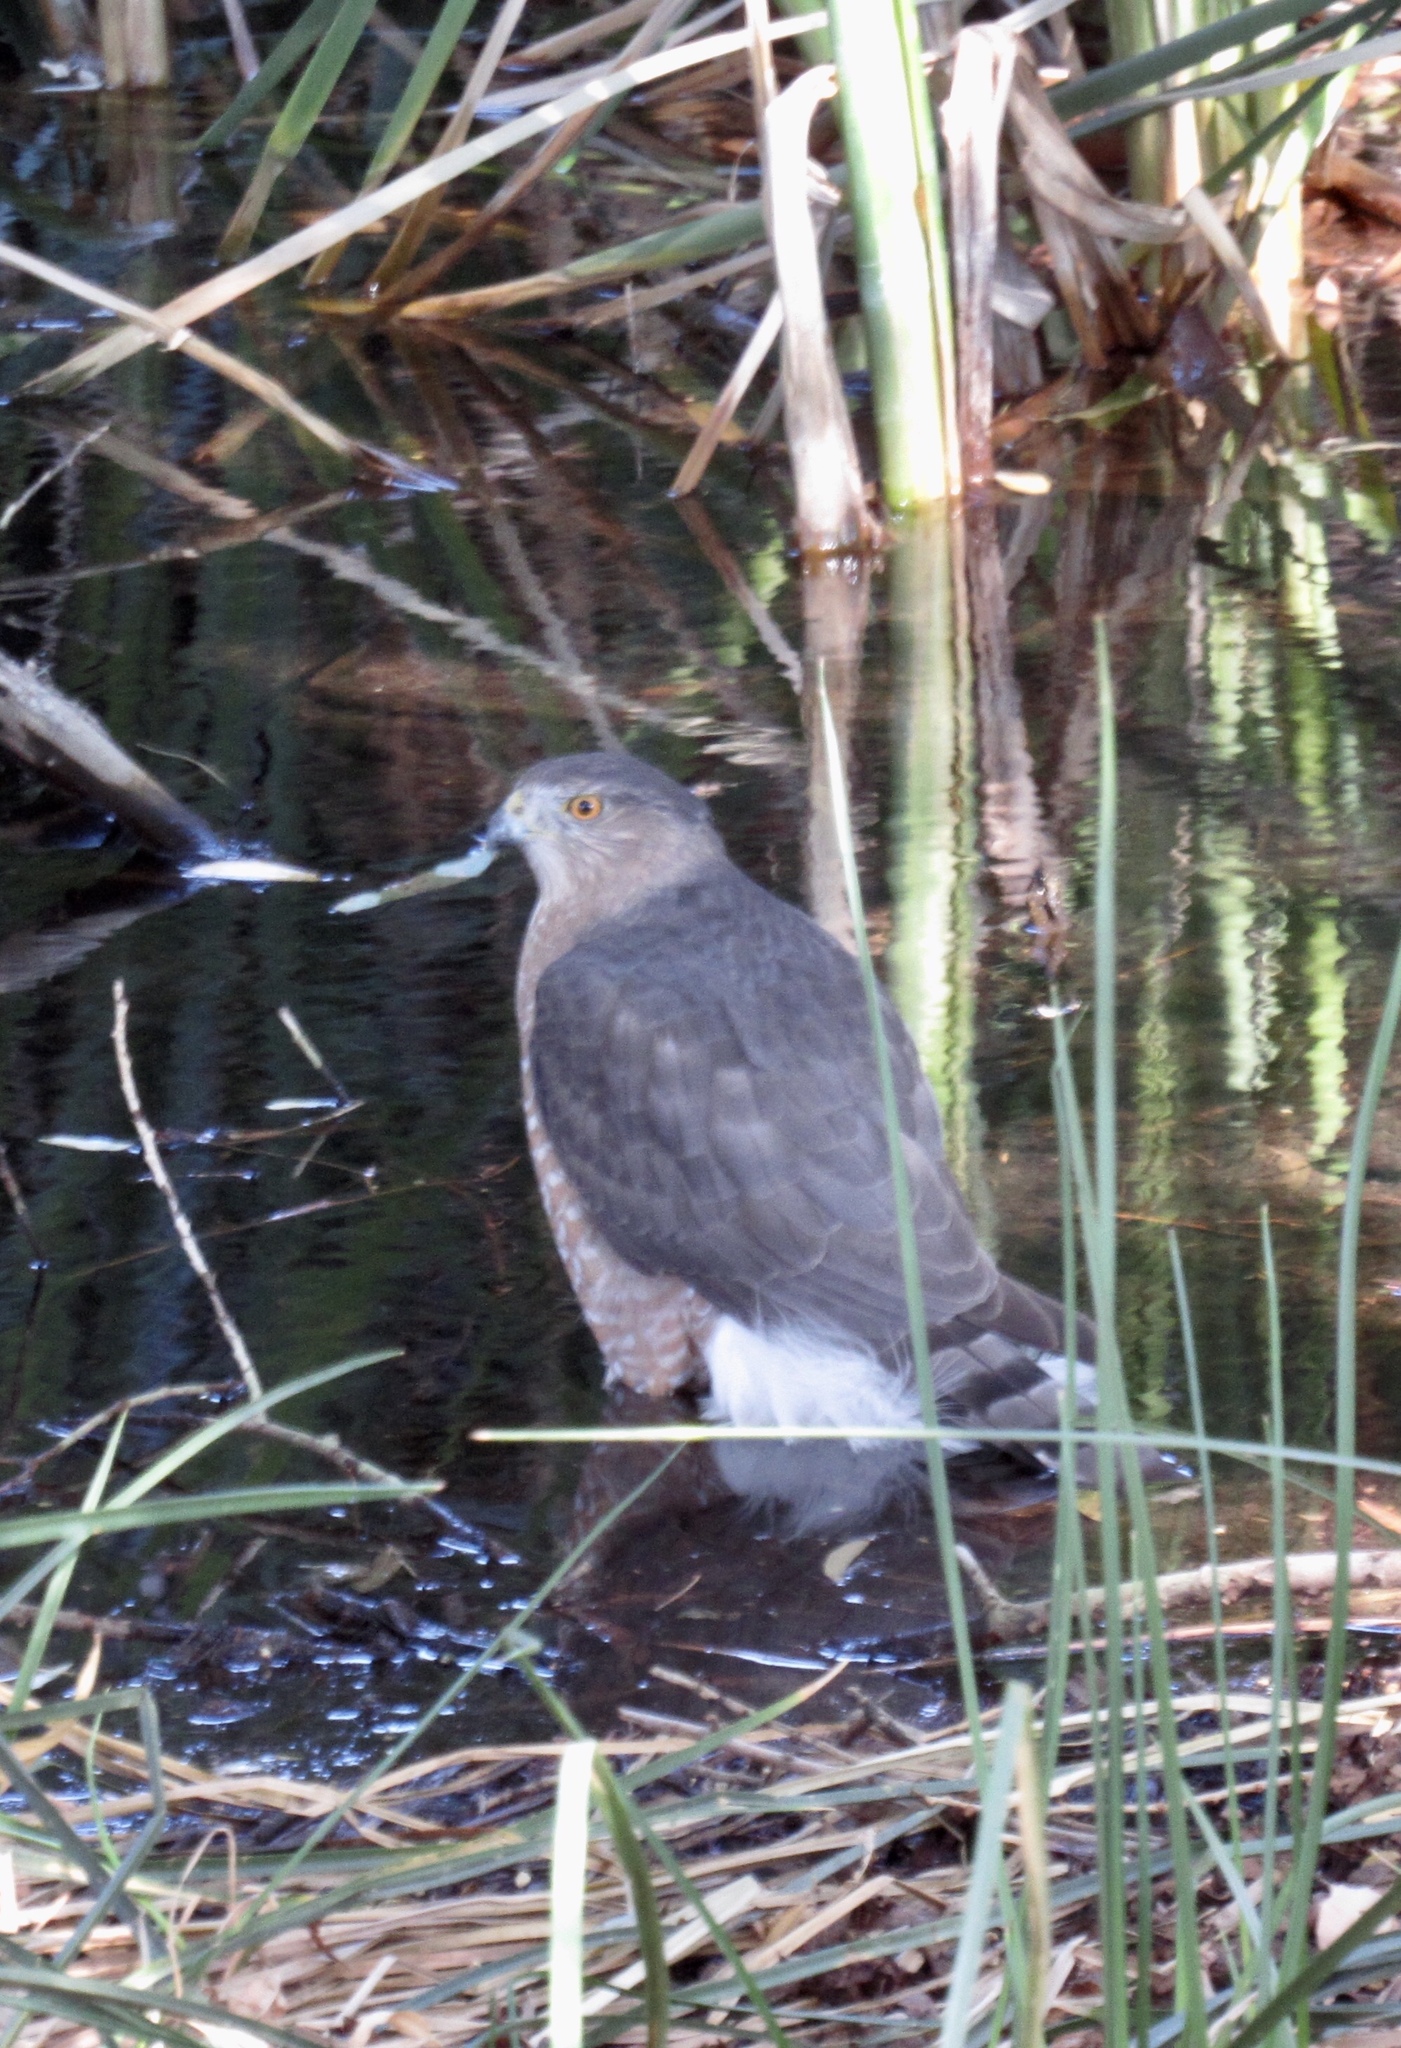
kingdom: Animalia
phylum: Chordata
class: Aves
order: Accipitriformes
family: Accipitridae
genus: Accipiter
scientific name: Accipiter cooperii
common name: Cooper's hawk
